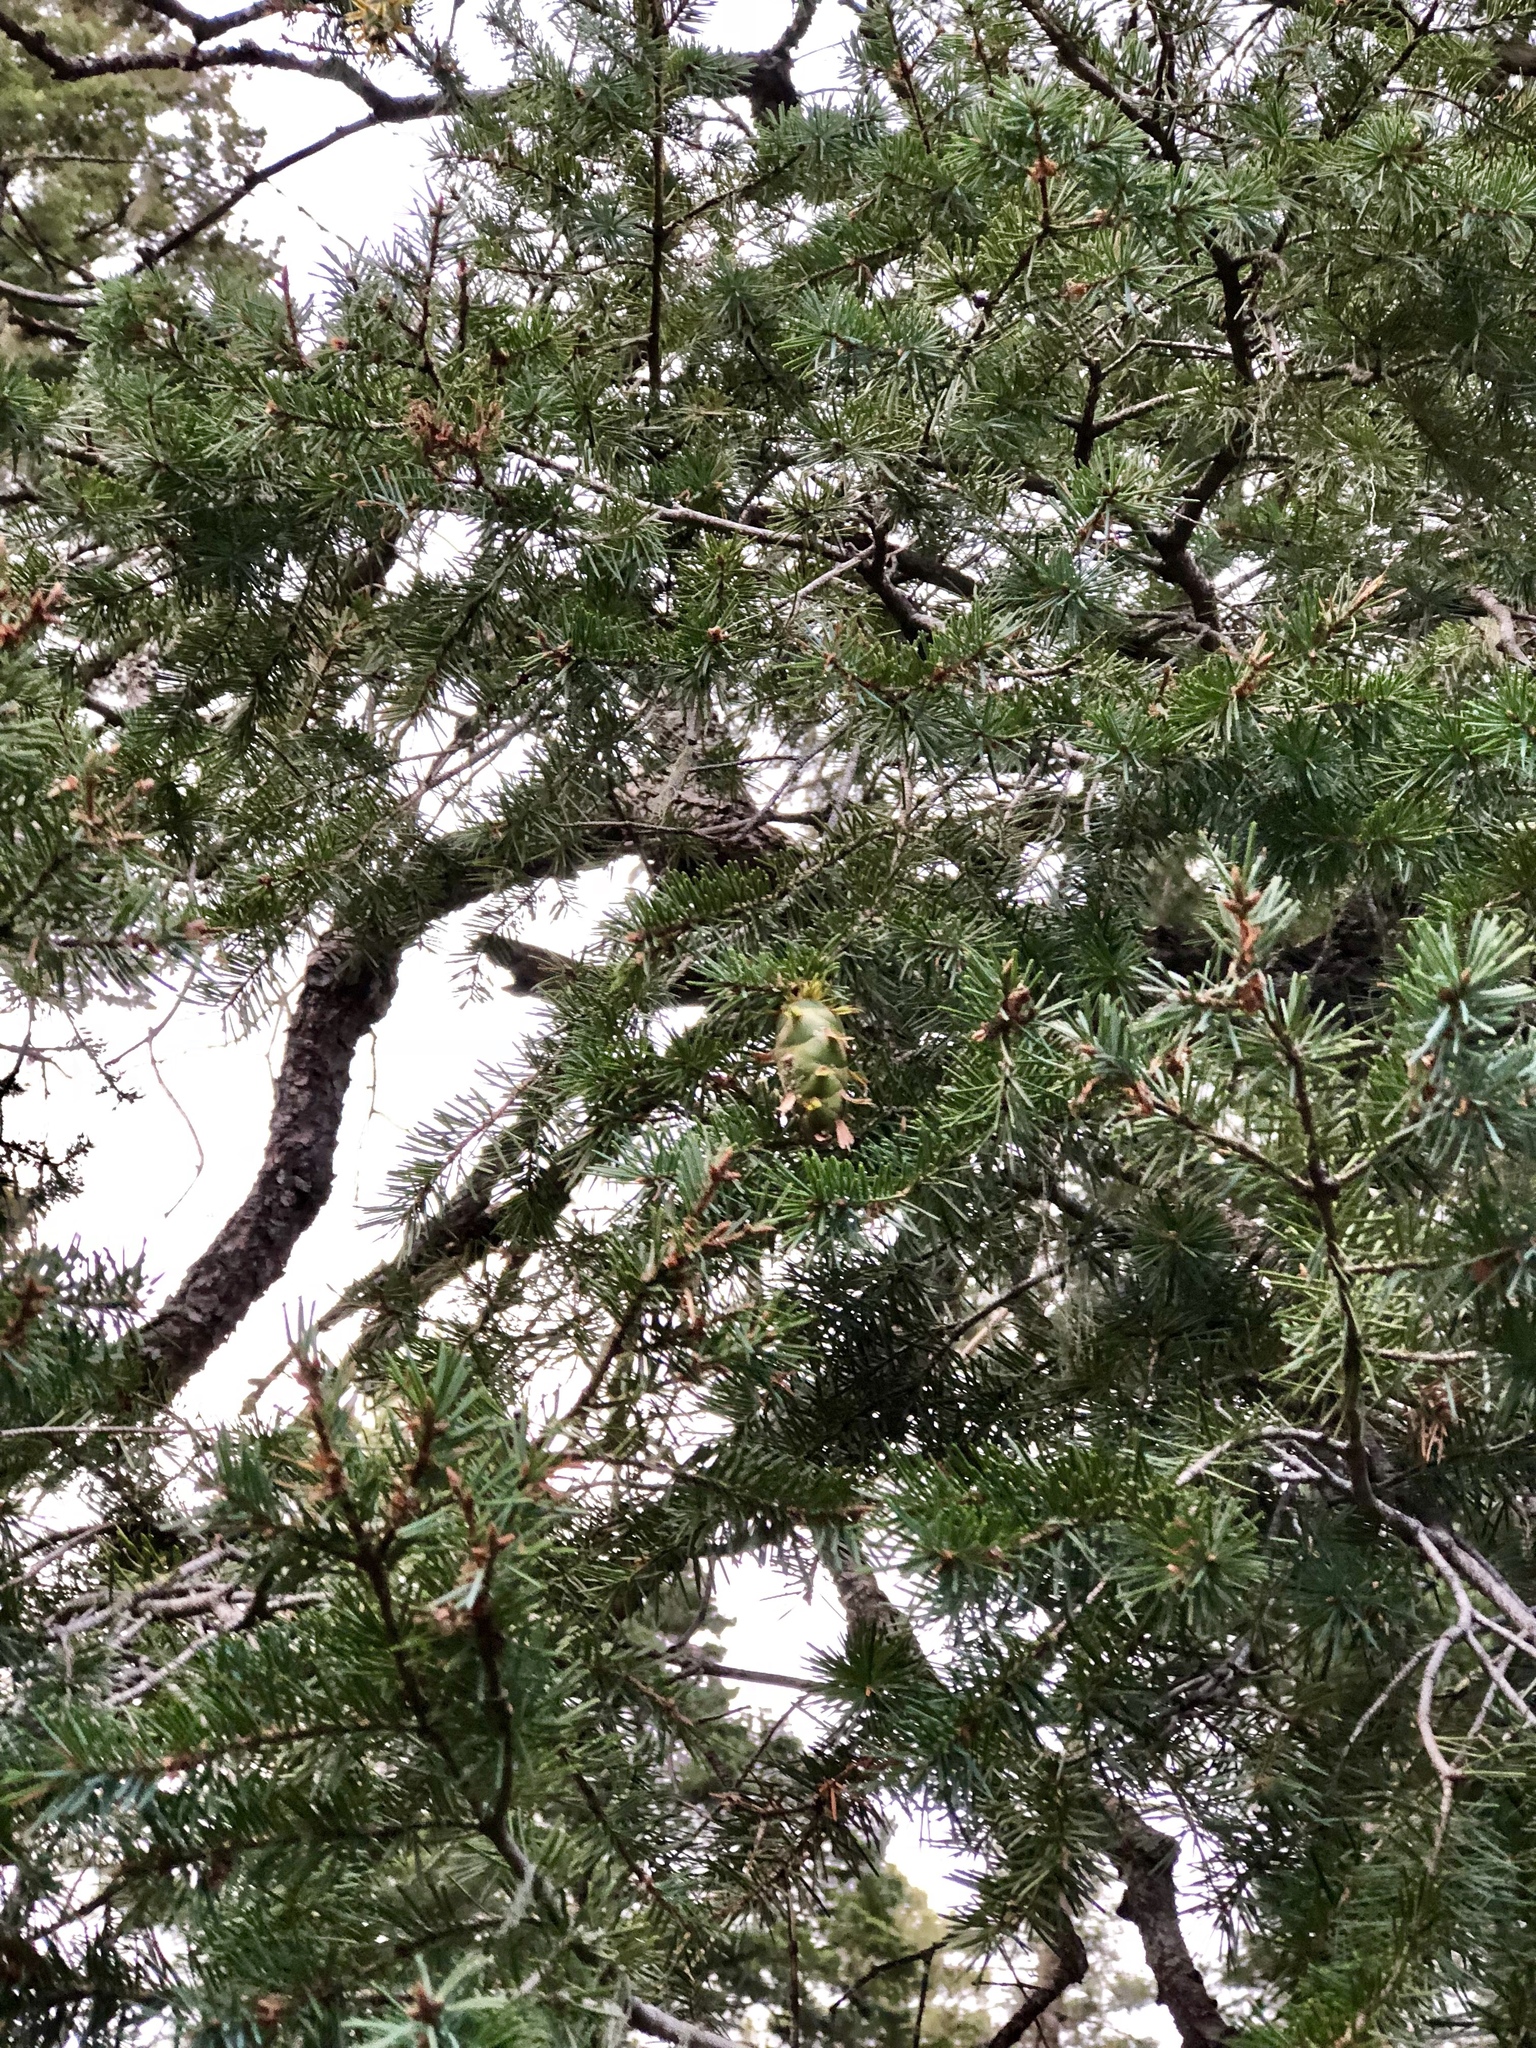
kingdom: Plantae
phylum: Tracheophyta
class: Pinopsida
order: Pinales
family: Pinaceae
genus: Pseudotsuga
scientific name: Pseudotsuga menziesii
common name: Douglas fir
